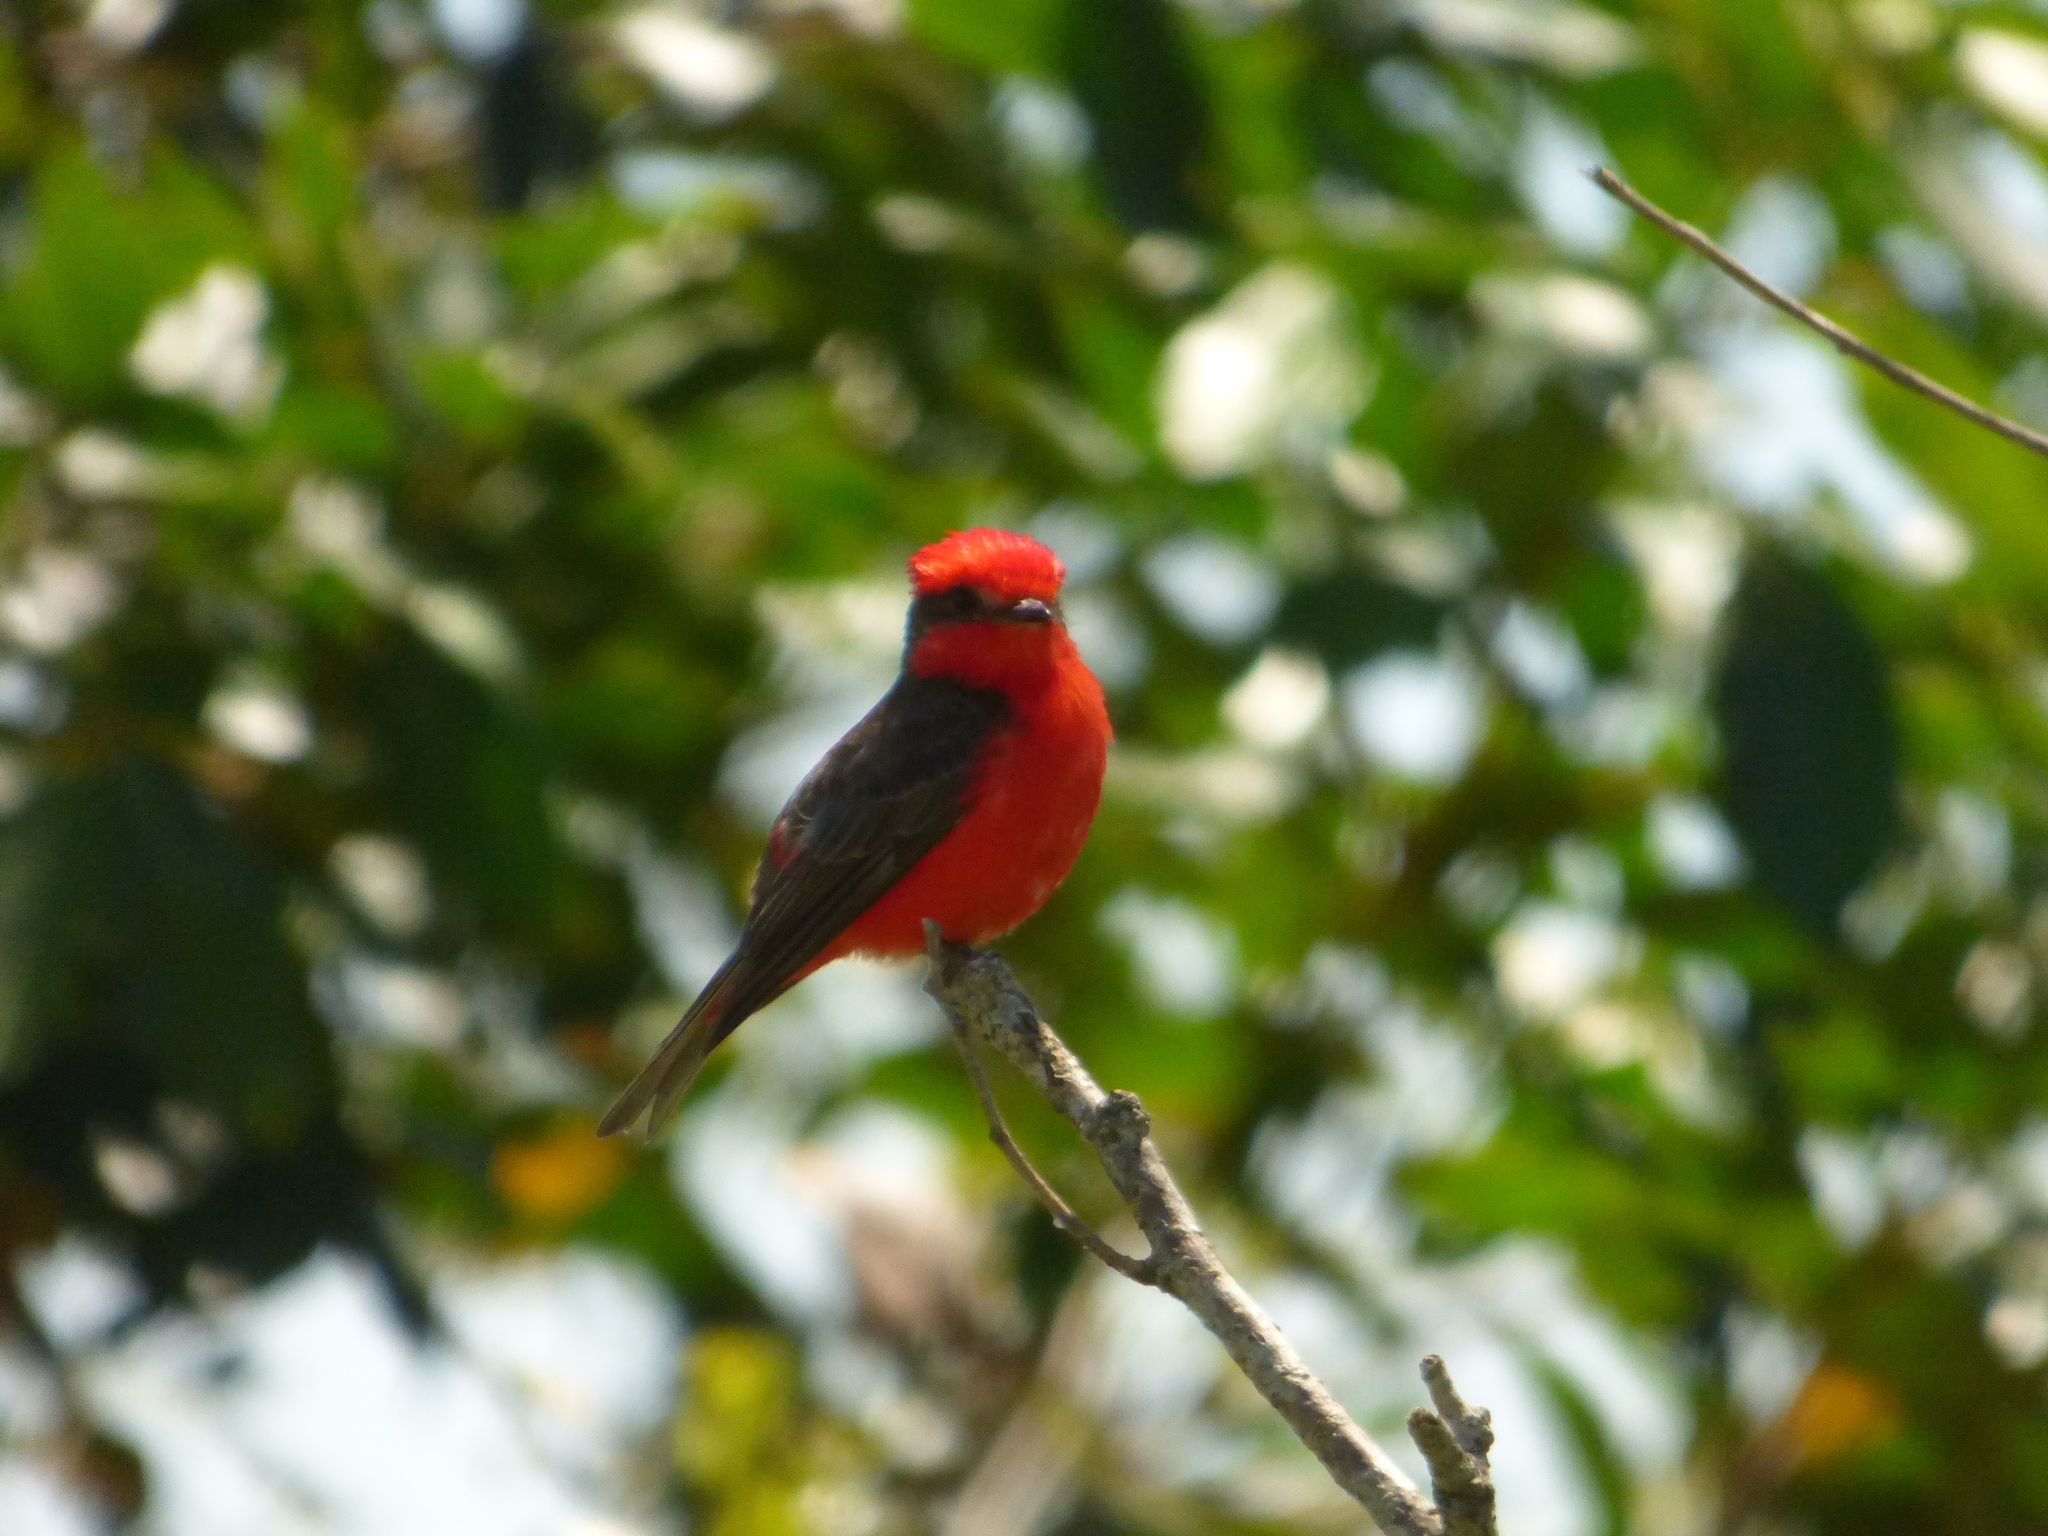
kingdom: Animalia
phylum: Chordata
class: Aves
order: Passeriformes
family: Tyrannidae
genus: Pyrocephalus
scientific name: Pyrocephalus rubinus
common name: Vermilion flycatcher
